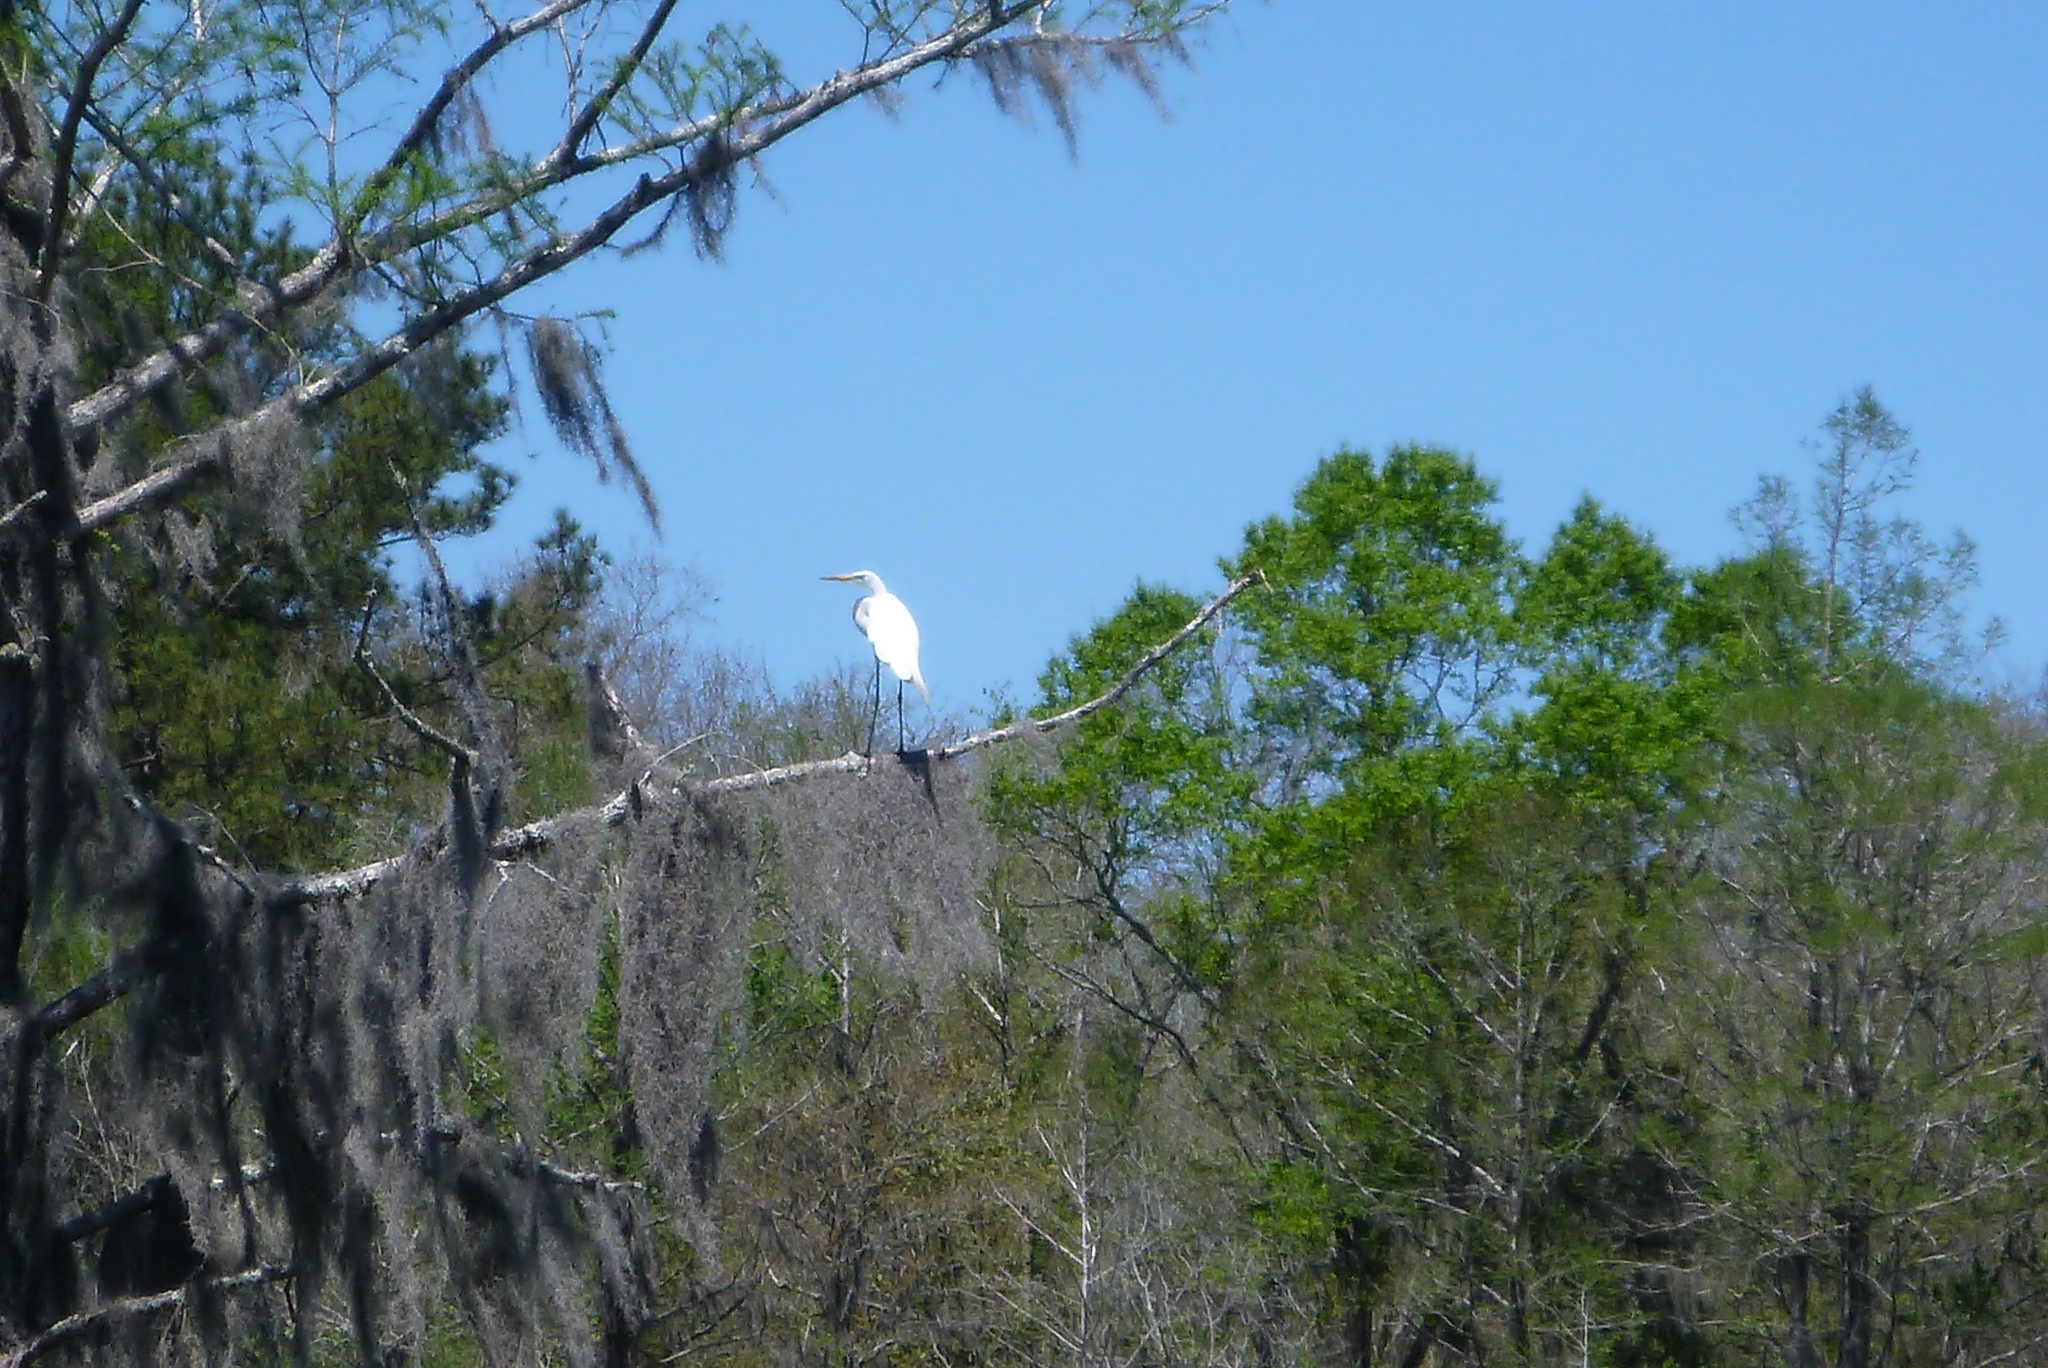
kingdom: Animalia
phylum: Chordata
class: Aves
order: Pelecaniformes
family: Ardeidae
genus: Ardea
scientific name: Ardea alba
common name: Great egret
